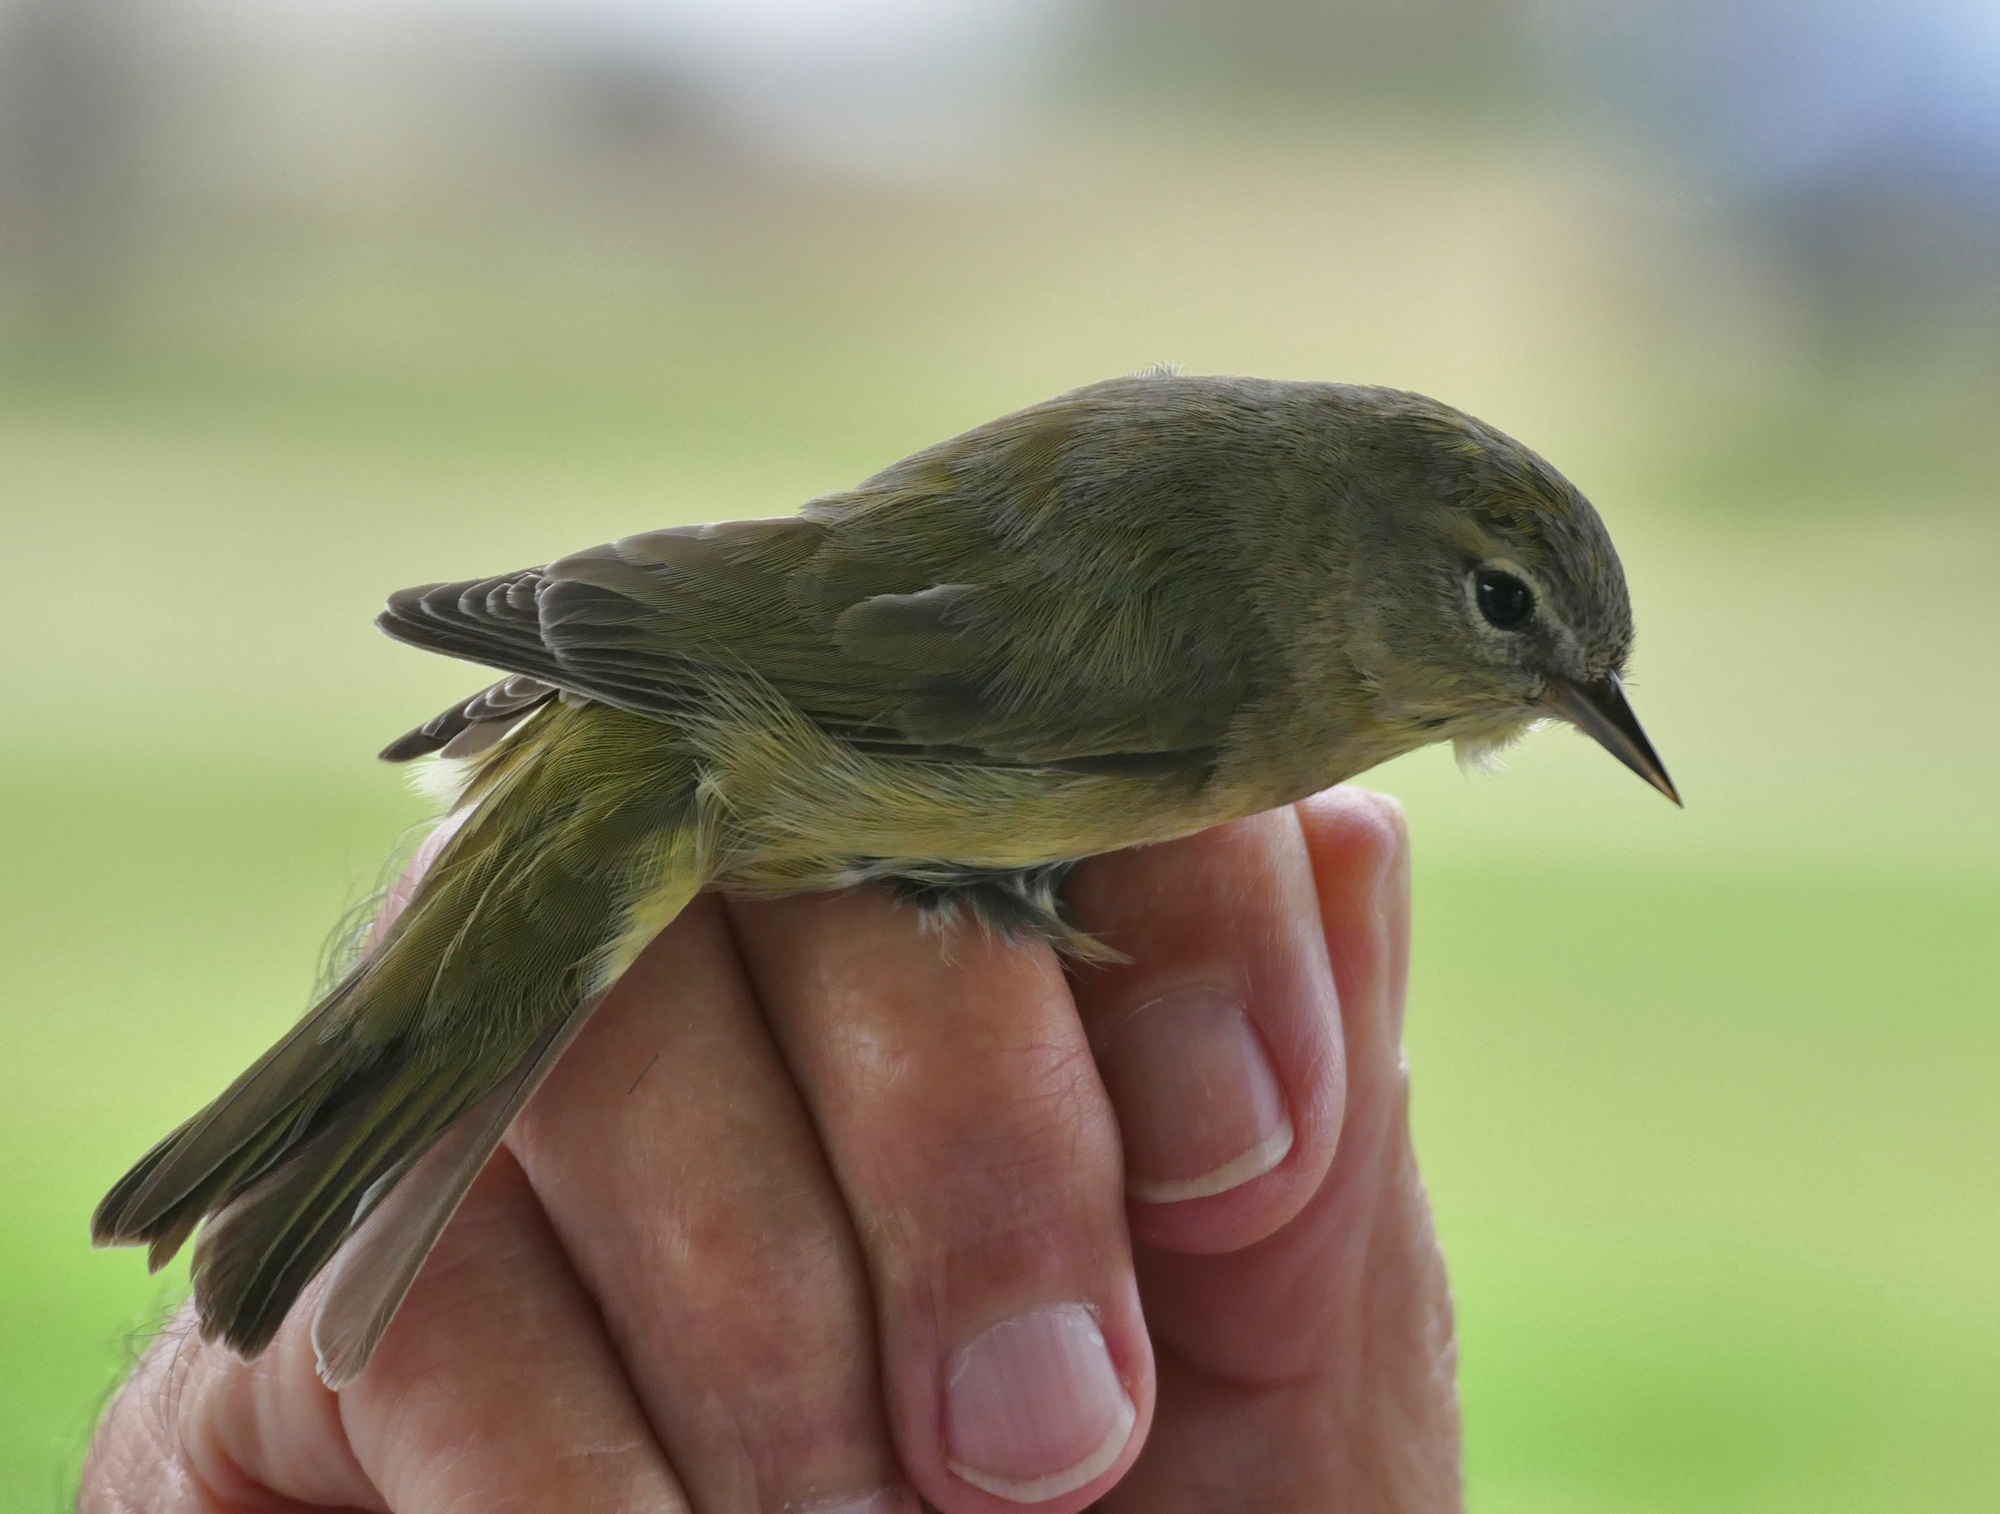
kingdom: Animalia
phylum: Chordata
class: Aves
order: Passeriformes
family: Parulidae
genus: Leiothlypis
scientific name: Leiothlypis celata
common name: Orange-crowned warbler
